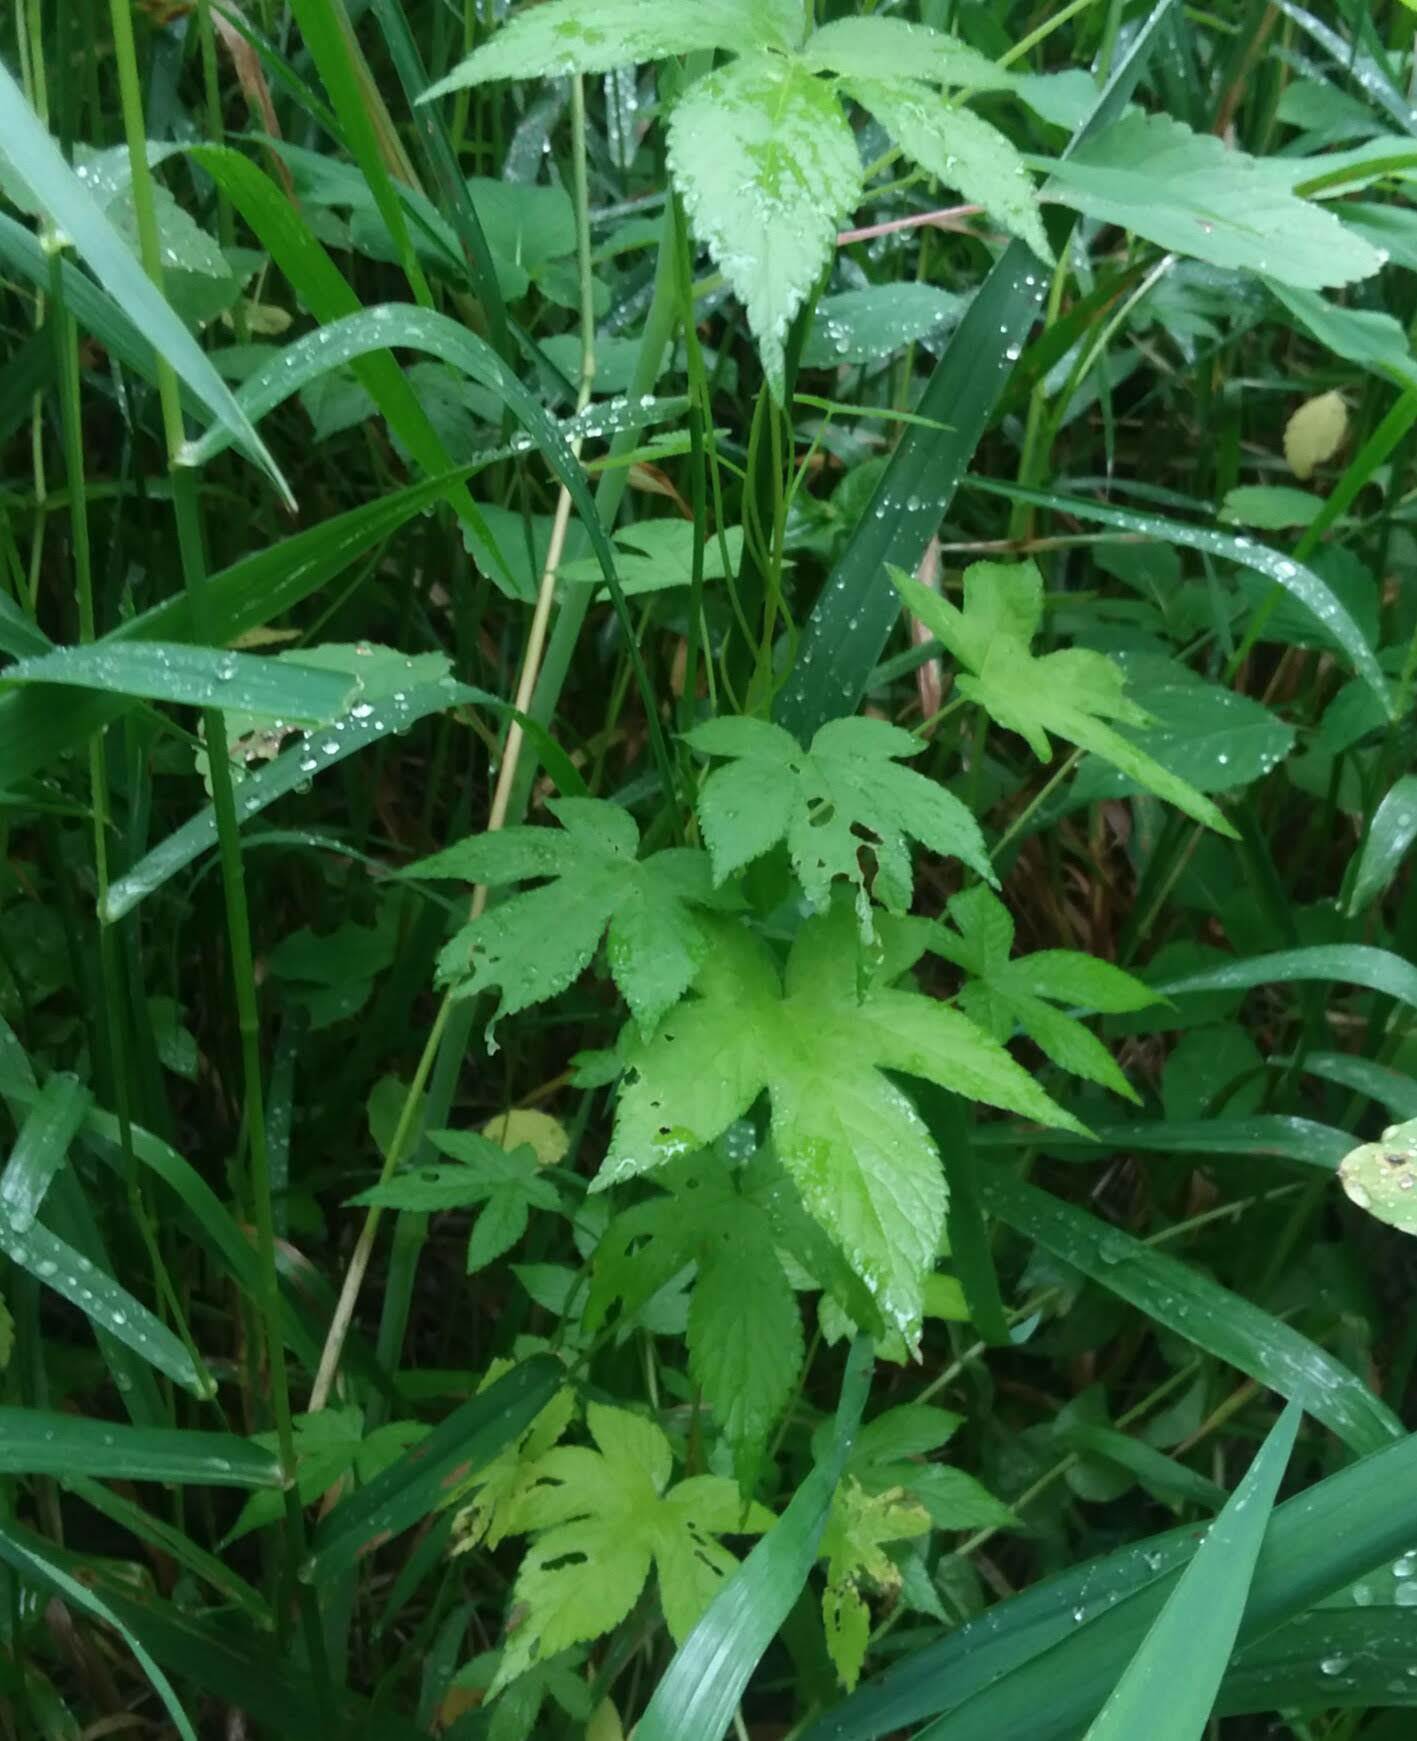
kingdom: Plantae
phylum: Tracheophyta
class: Magnoliopsida
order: Rosales
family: Cannabaceae
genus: Humulus
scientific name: Humulus scandens
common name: Japanese hop
